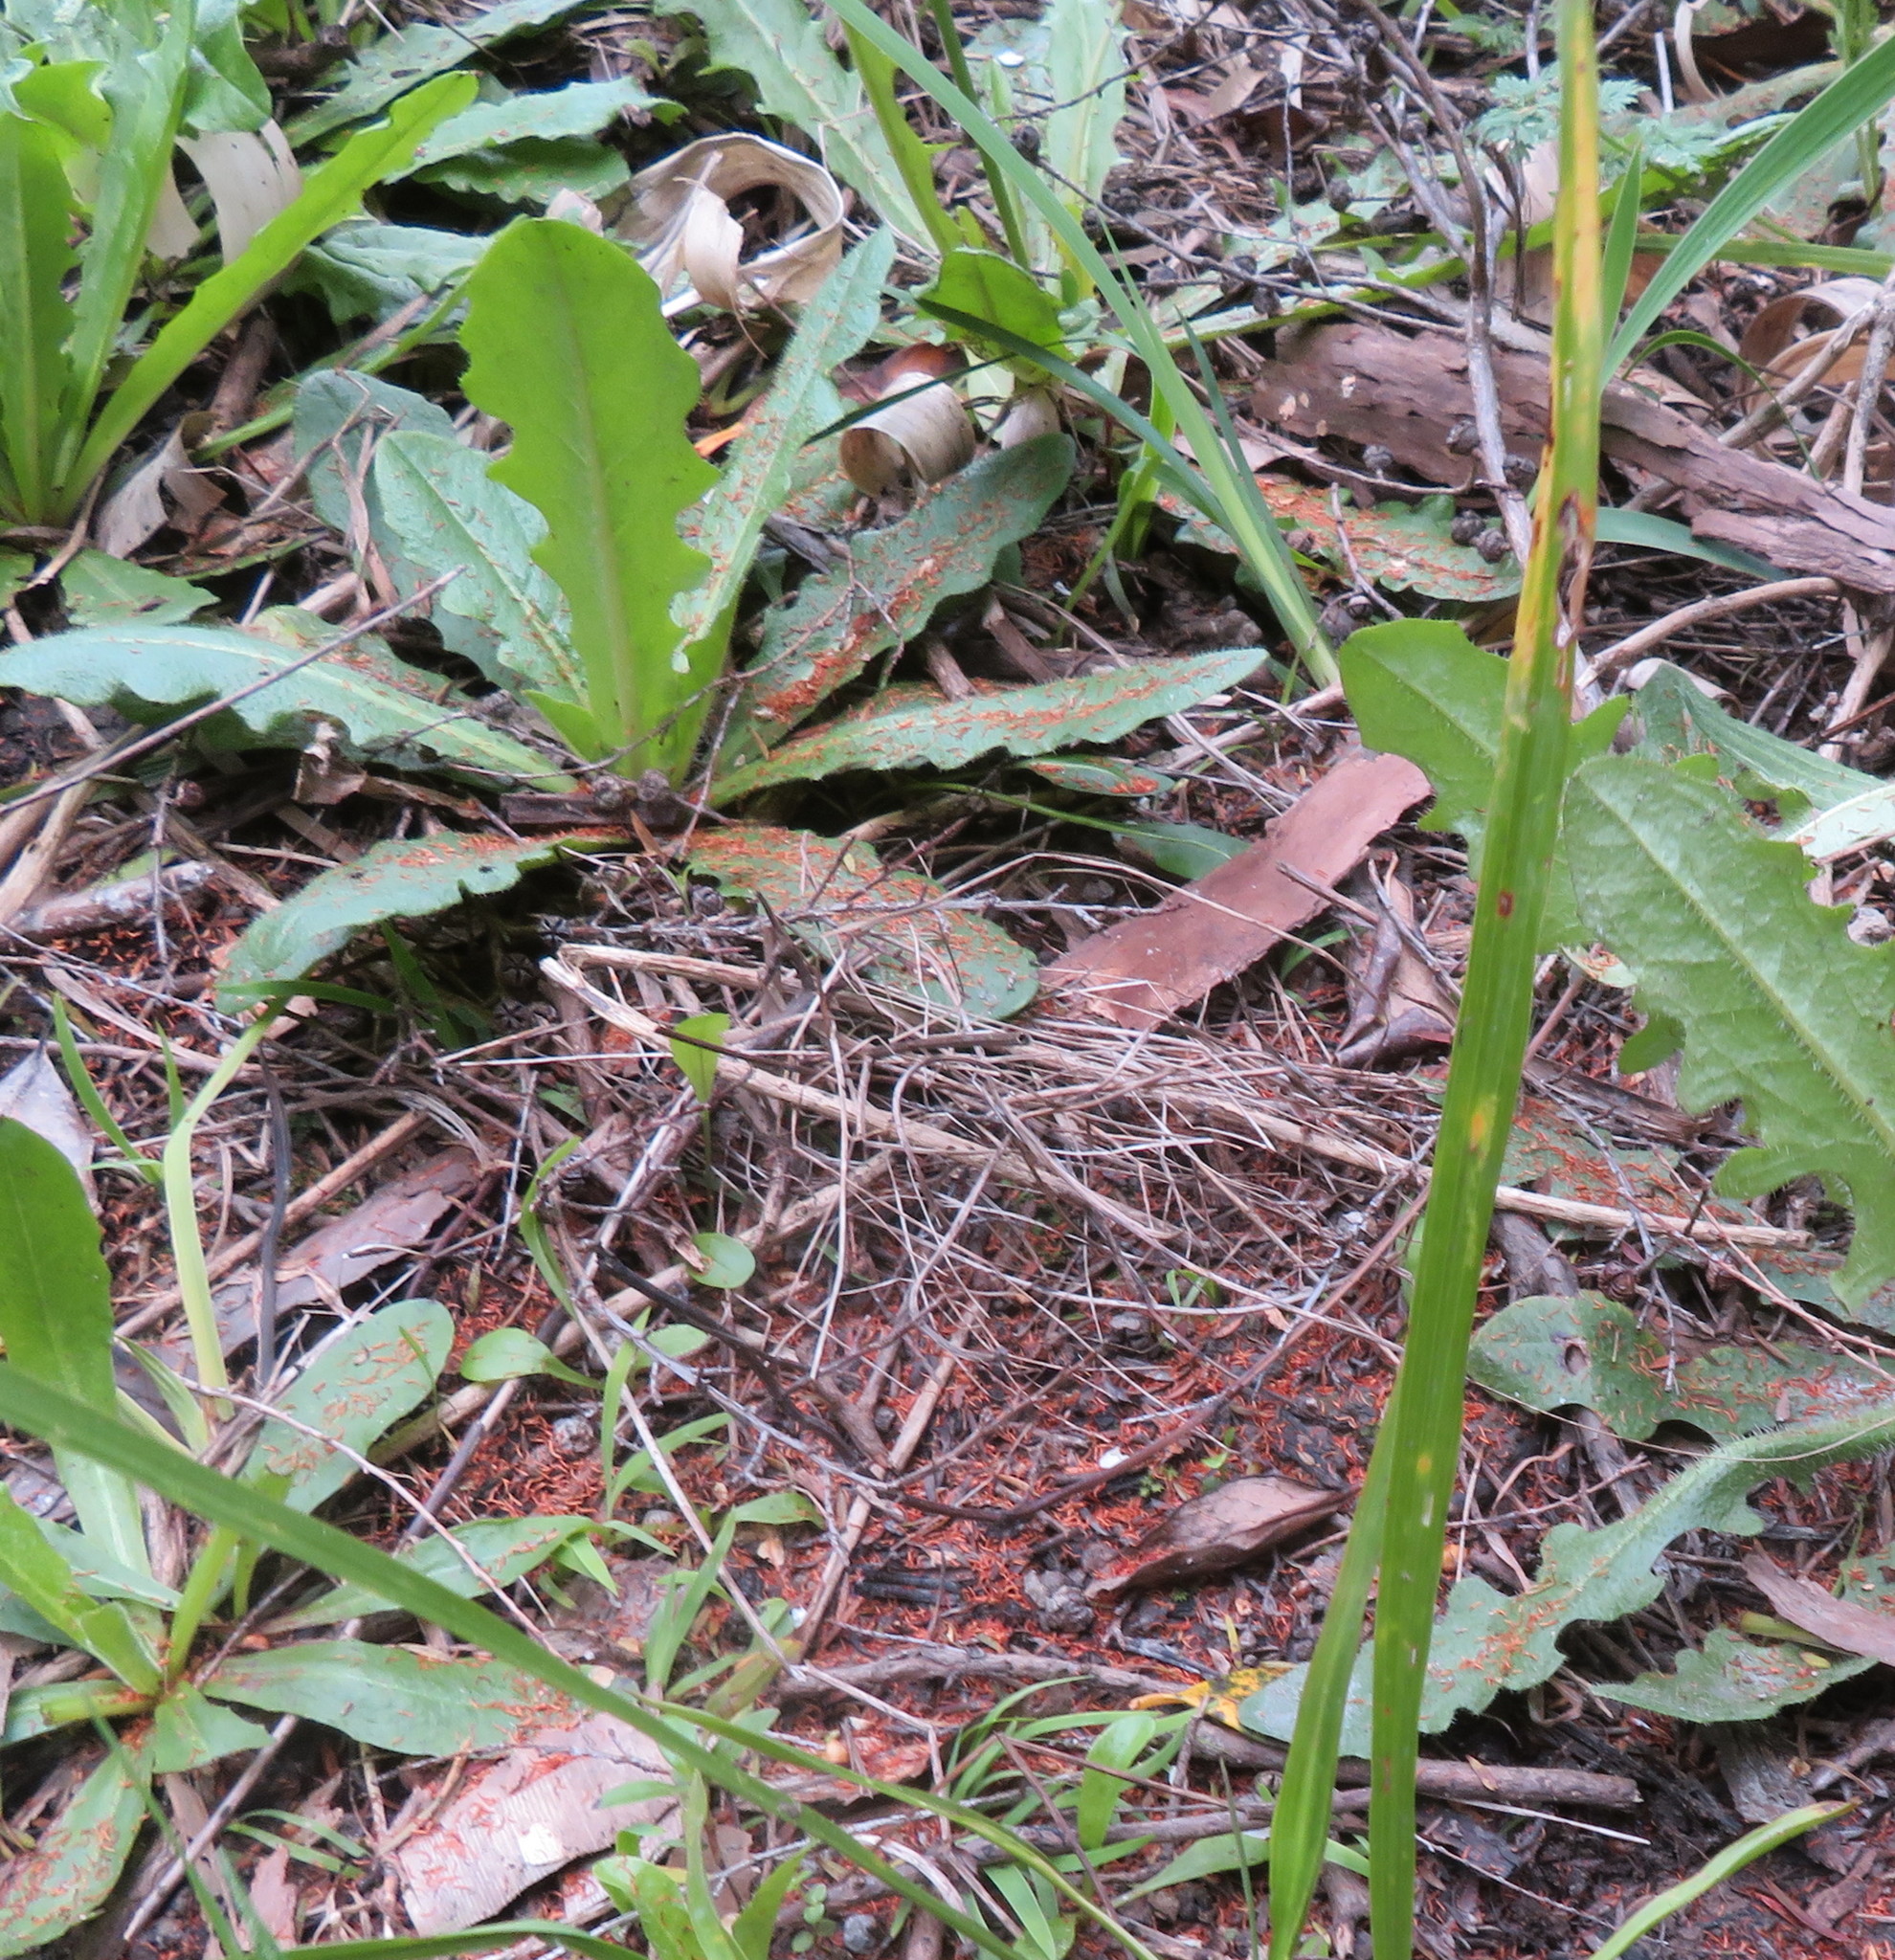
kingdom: Plantae
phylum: Tracheophyta
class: Magnoliopsida
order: Asterales
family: Asteraceae
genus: Hypochaeris
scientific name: Hypochaeris radicata
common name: Flatweed
